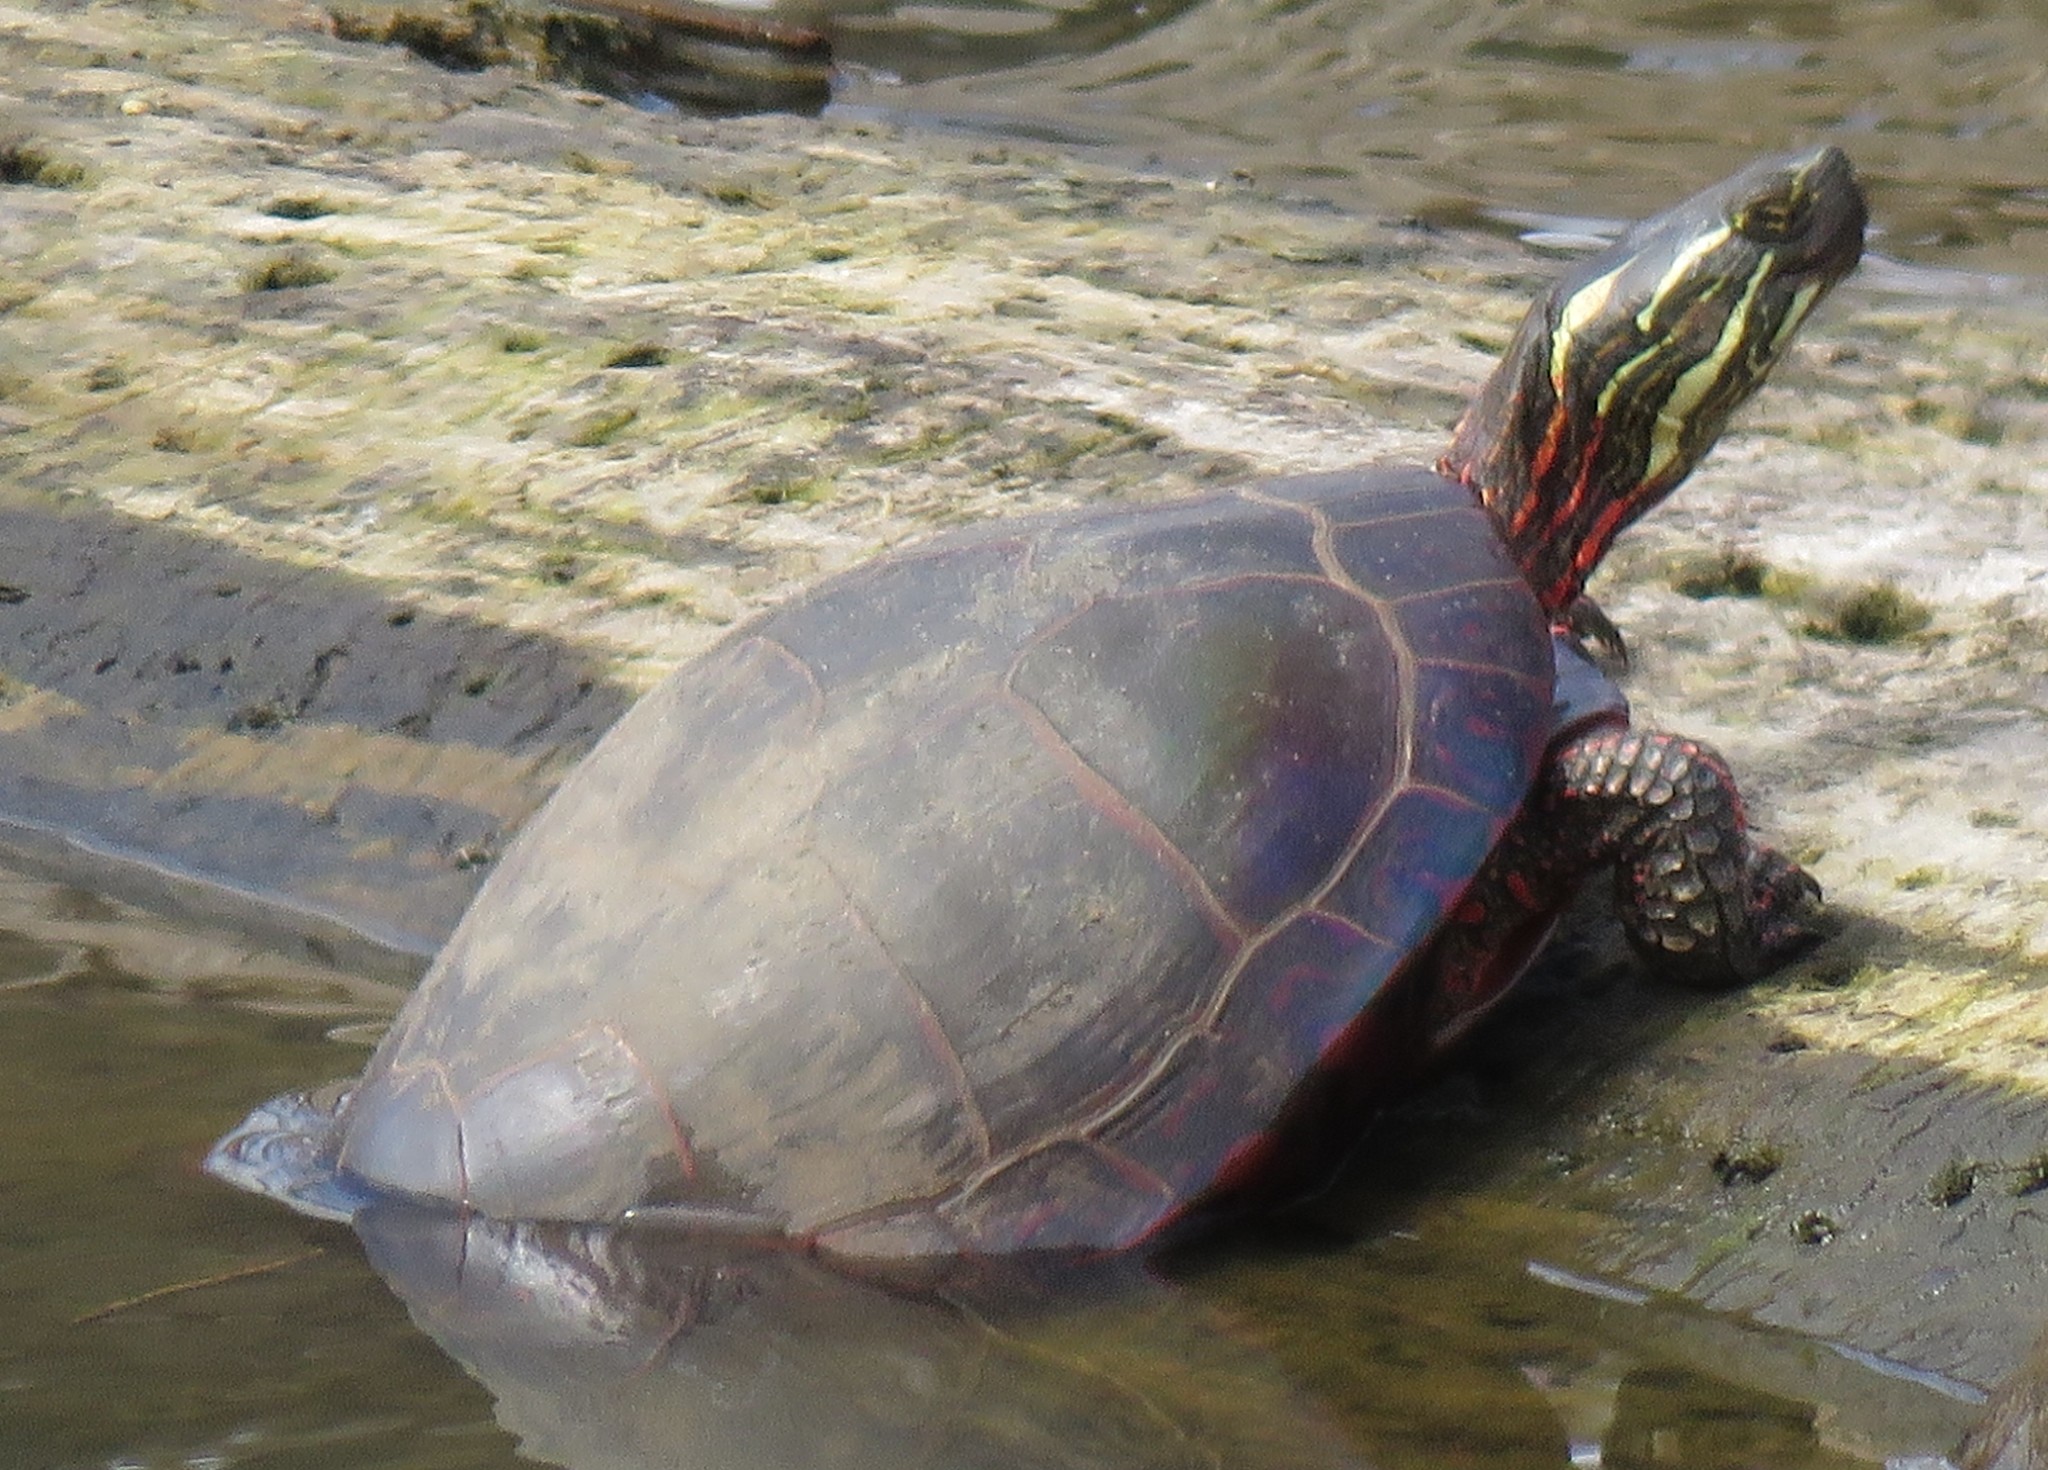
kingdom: Animalia
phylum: Chordata
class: Testudines
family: Emydidae
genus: Chrysemys
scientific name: Chrysemys picta
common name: Painted turtle
